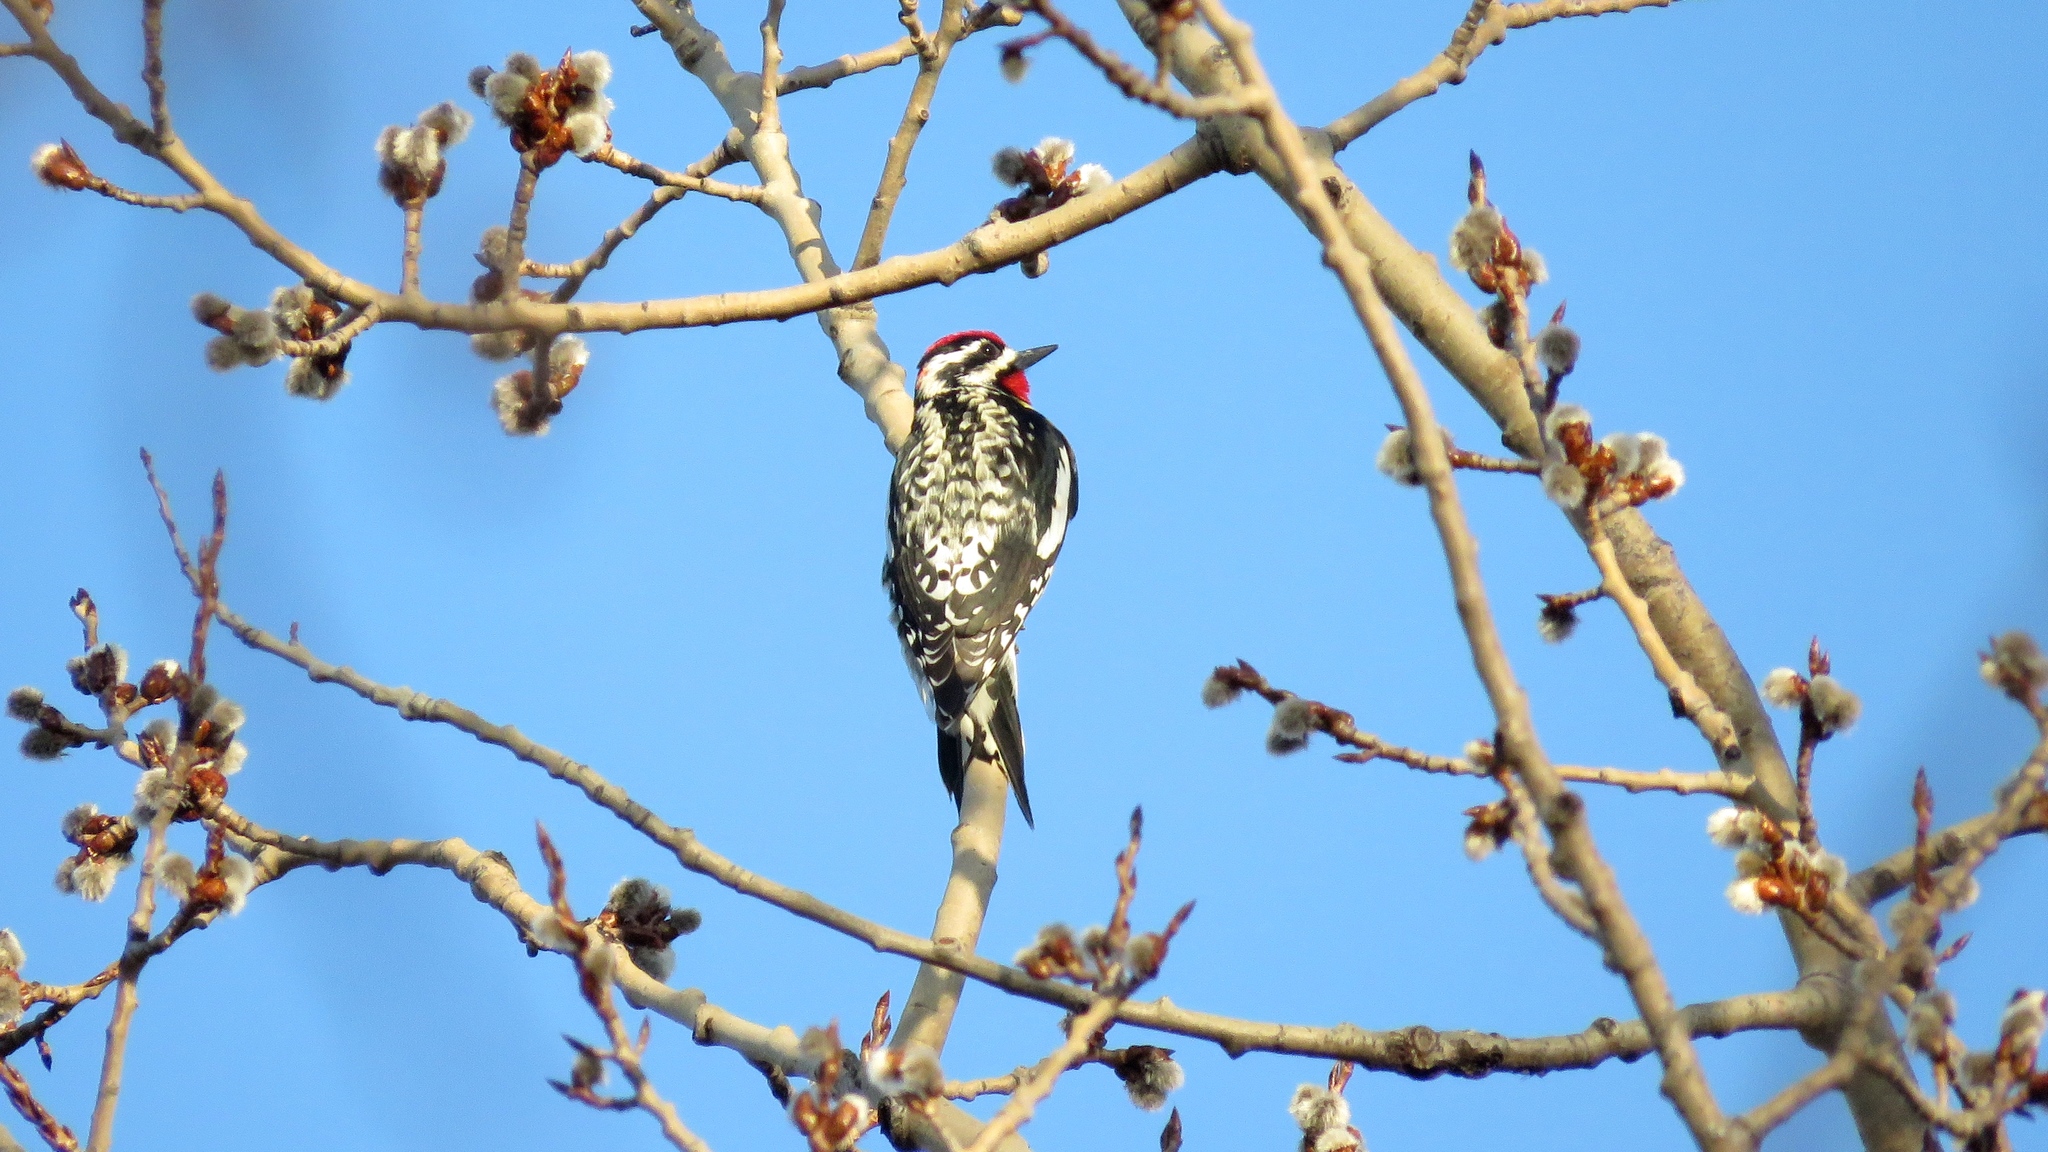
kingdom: Animalia
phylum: Chordata
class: Aves
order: Piciformes
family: Picidae
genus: Sphyrapicus
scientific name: Sphyrapicus varius
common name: Yellow-bellied sapsucker
